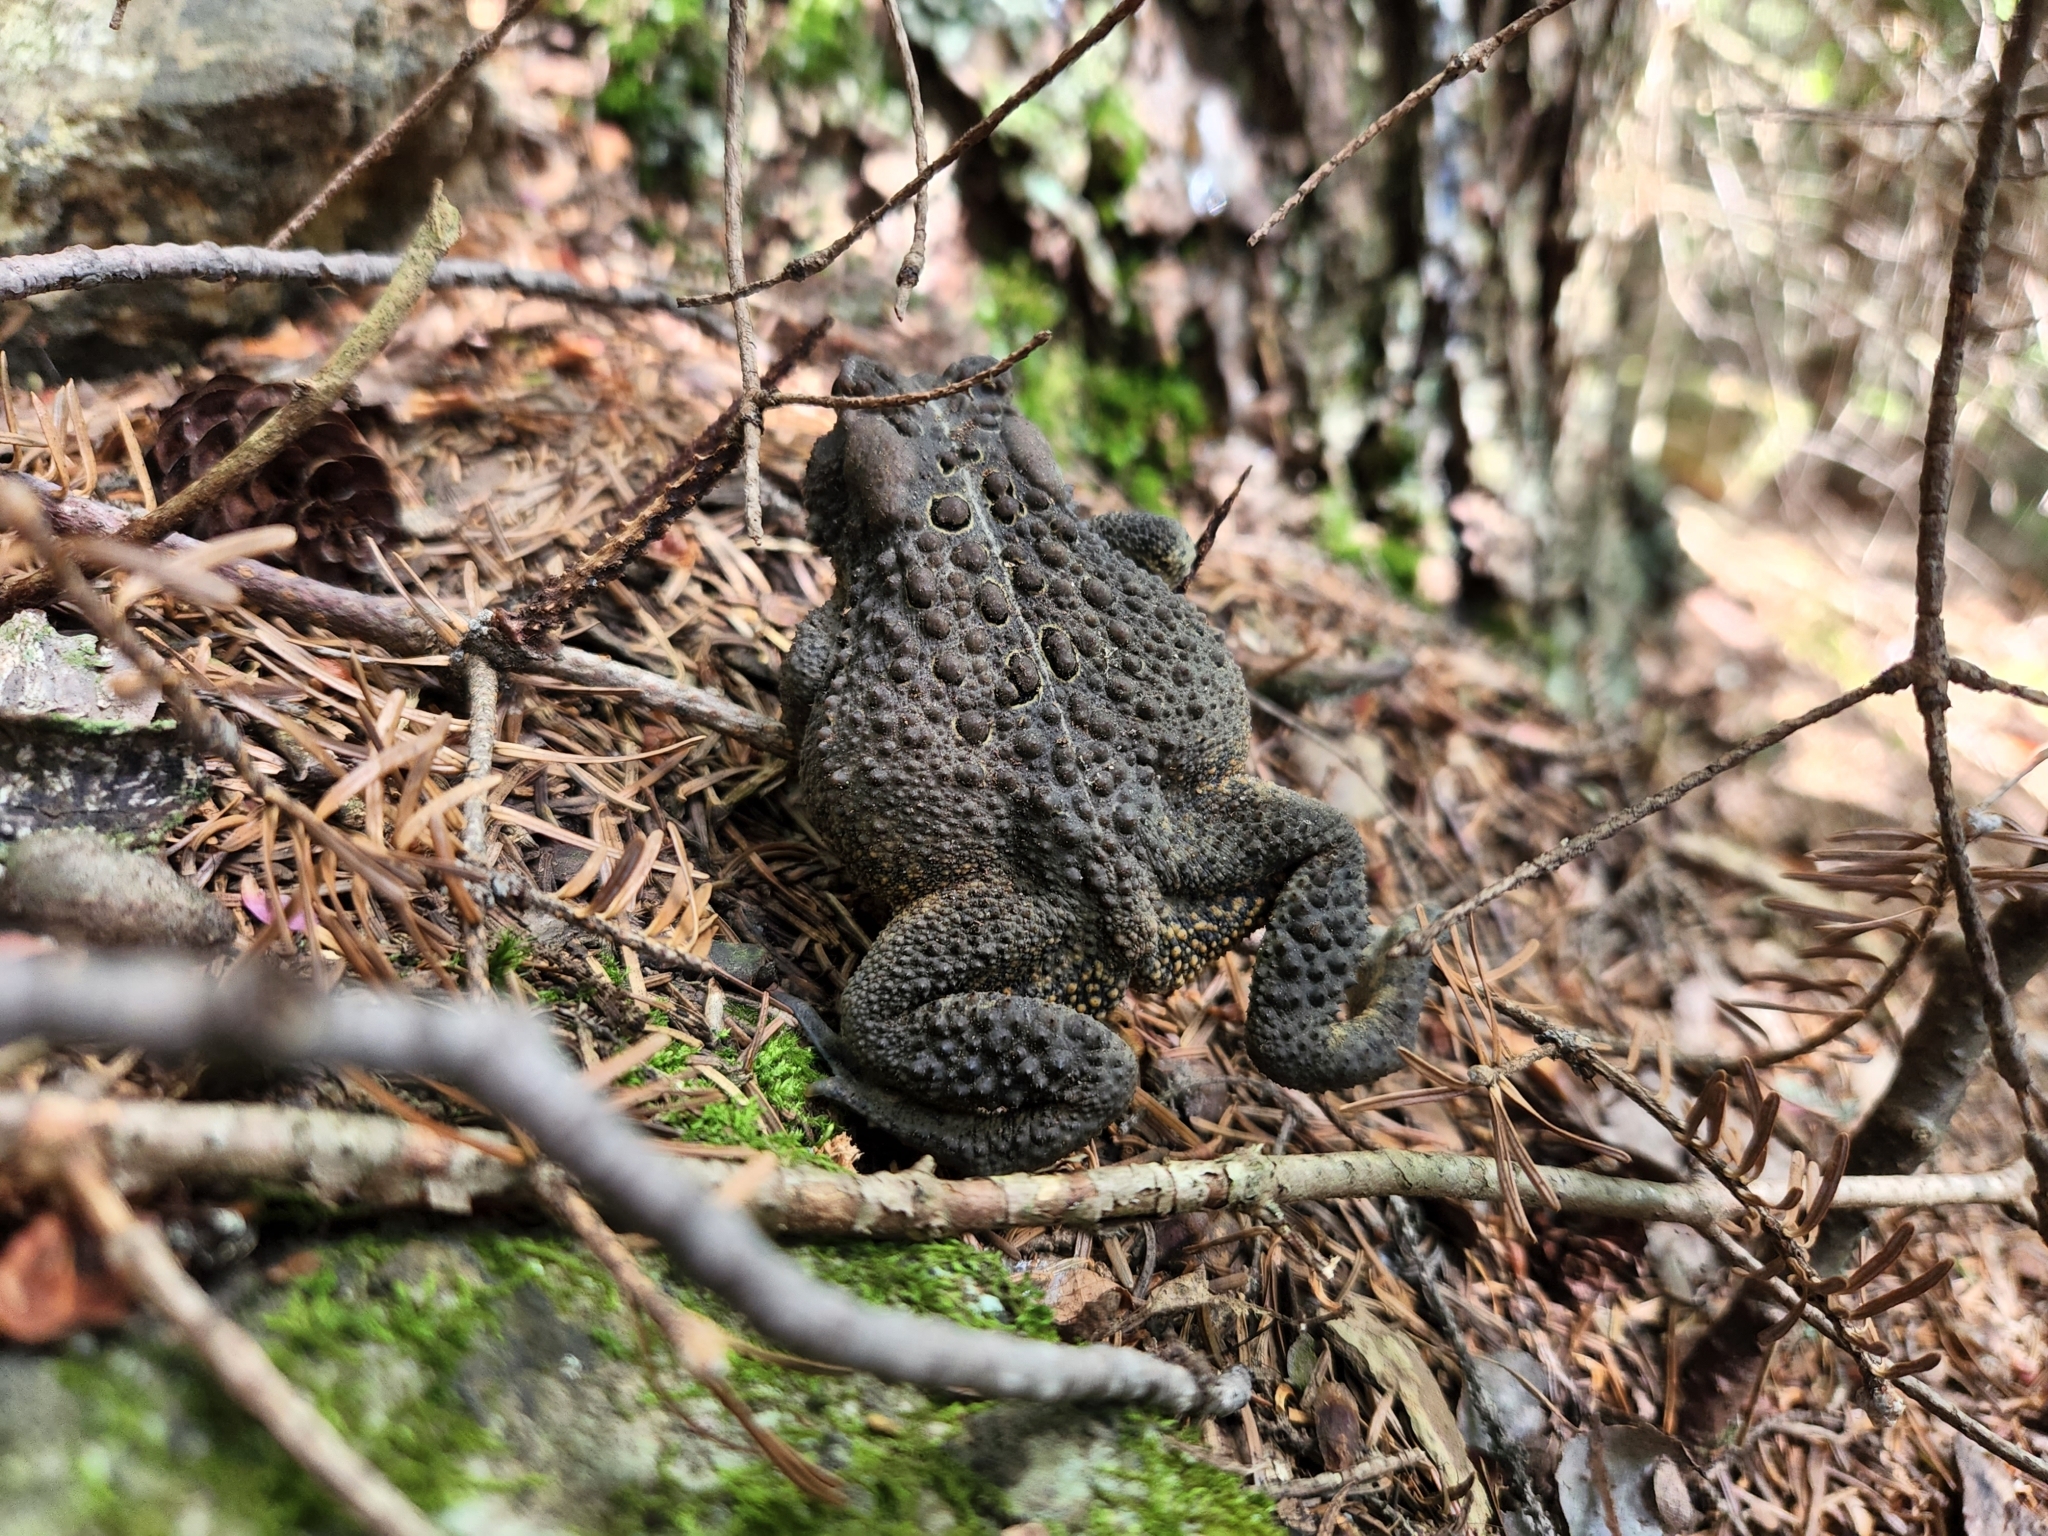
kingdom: Animalia
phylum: Chordata
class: Amphibia
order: Anura
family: Bufonidae
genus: Anaxyrus
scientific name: Anaxyrus americanus
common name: American toad
